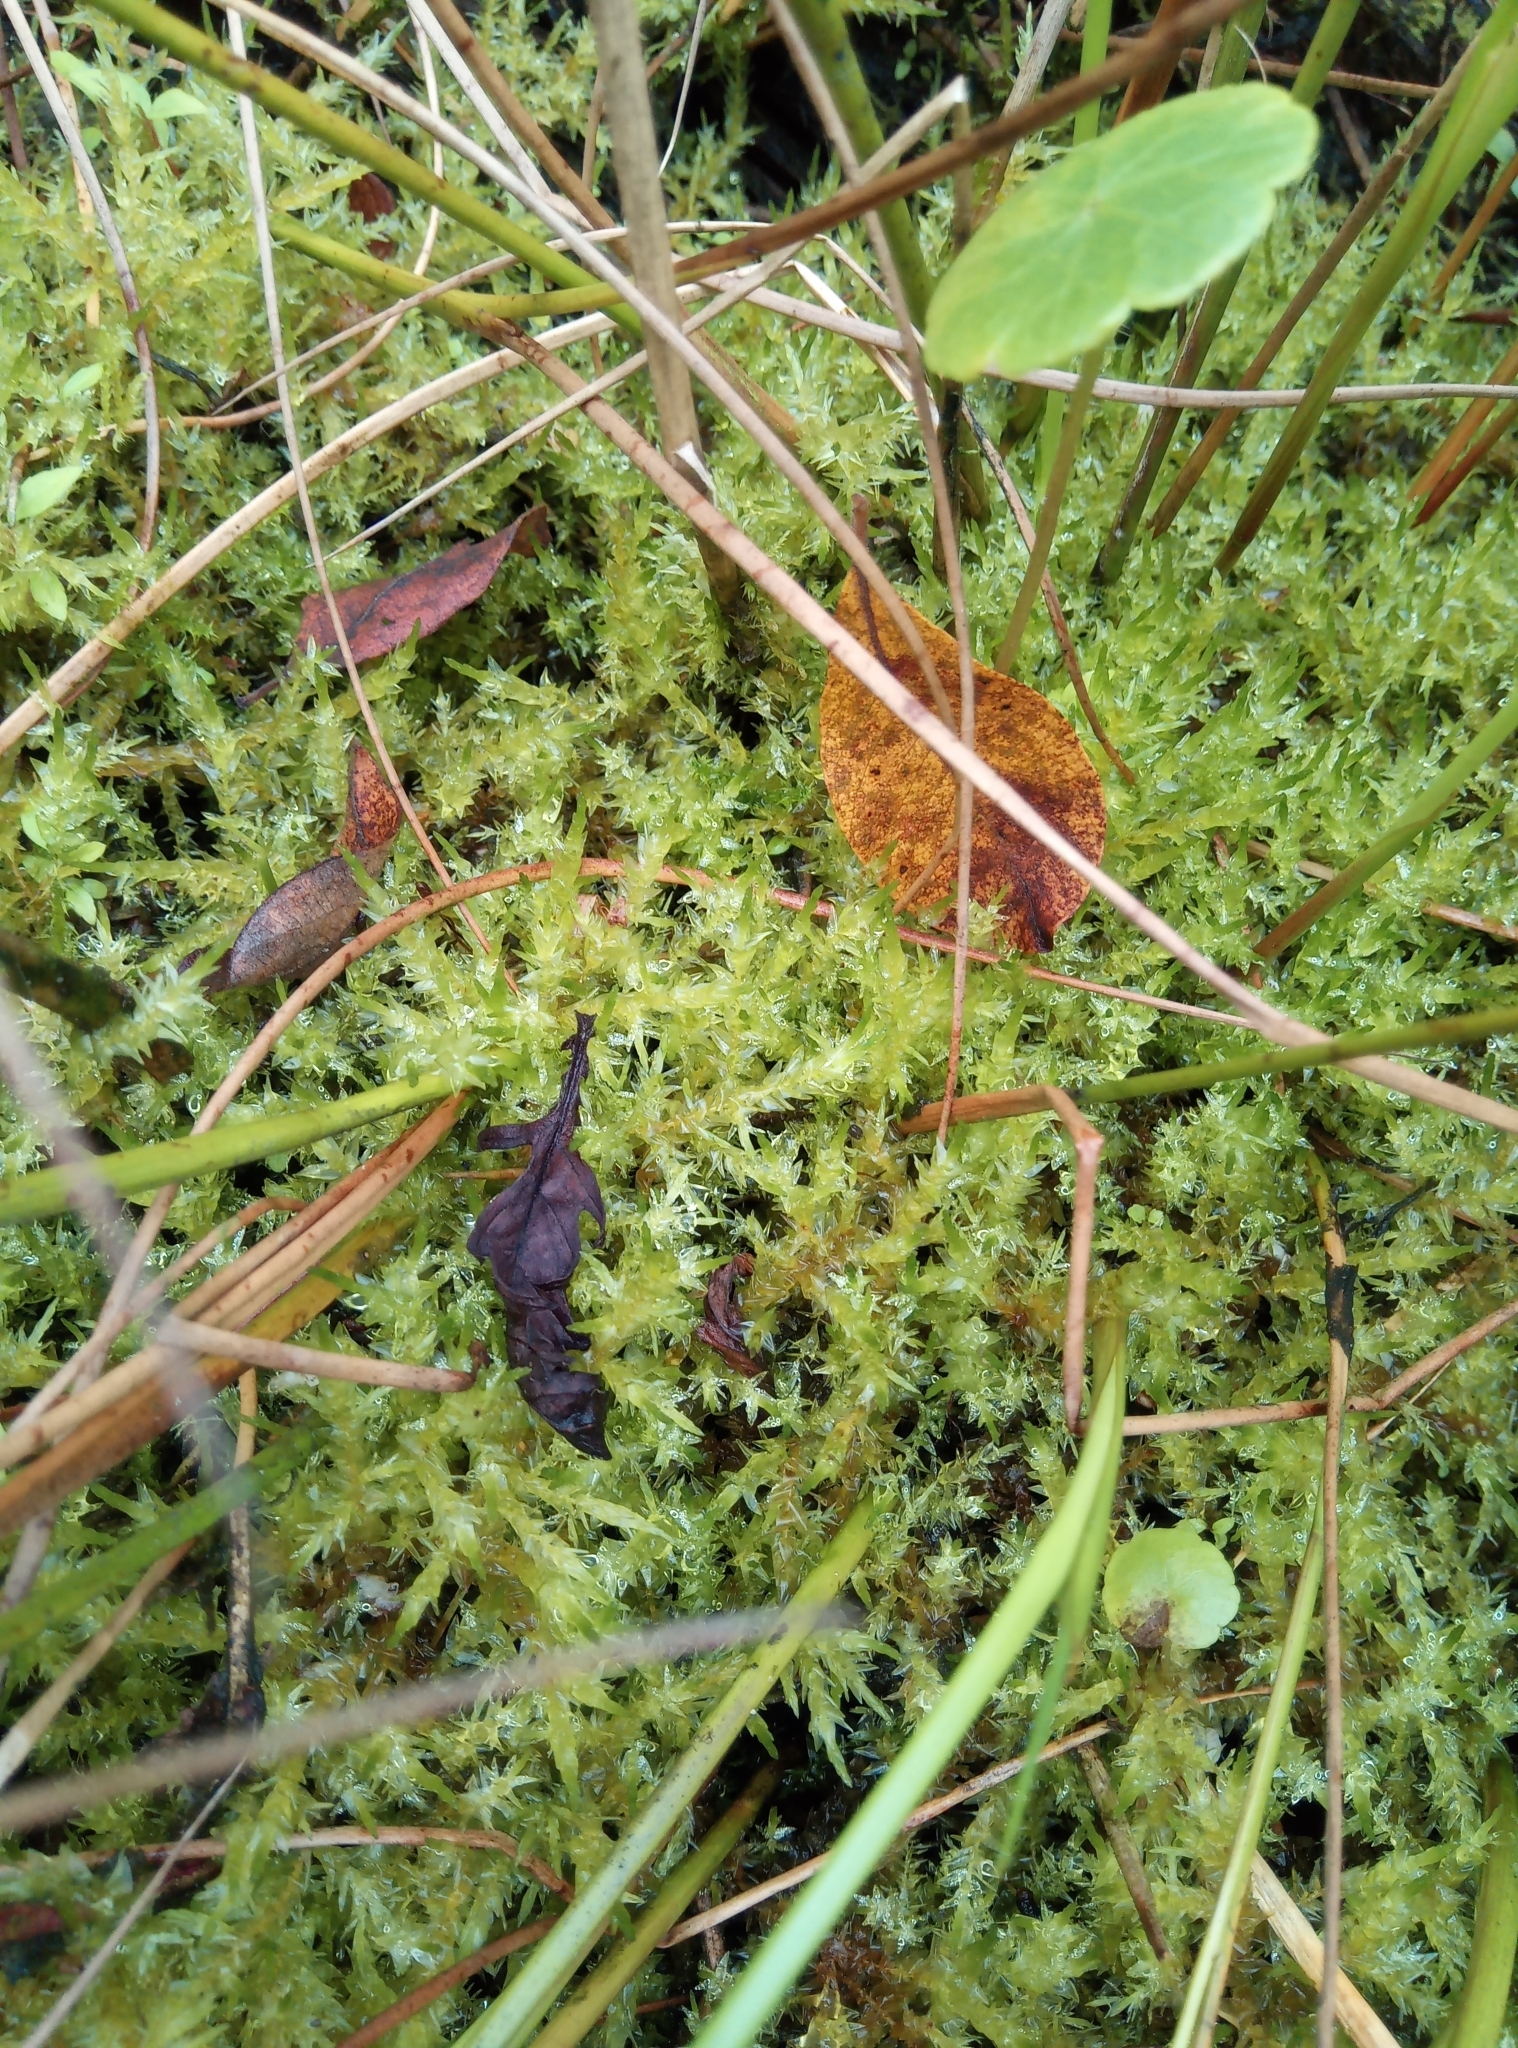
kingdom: Plantae
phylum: Bryophyta
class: Bryopsida
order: Hypnales
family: Calliergonaceae
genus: Calliergon
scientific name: Calliergon cordifolium
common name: Heart-leaved spear moss
